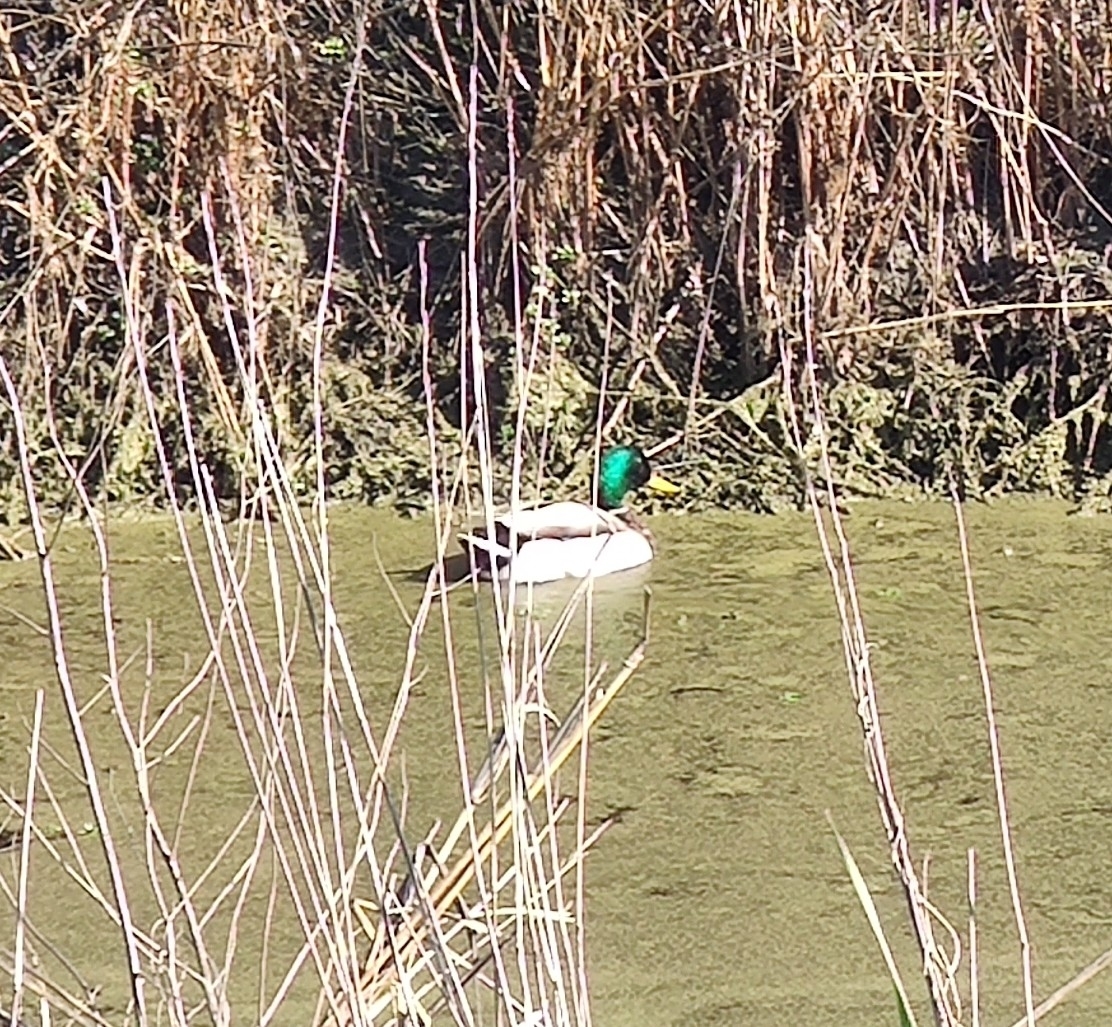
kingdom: Animalia
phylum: Chordata
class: Aves
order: Anseriformes
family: Anatidae
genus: Anas
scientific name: Anas platyrhynchos
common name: Mallard
